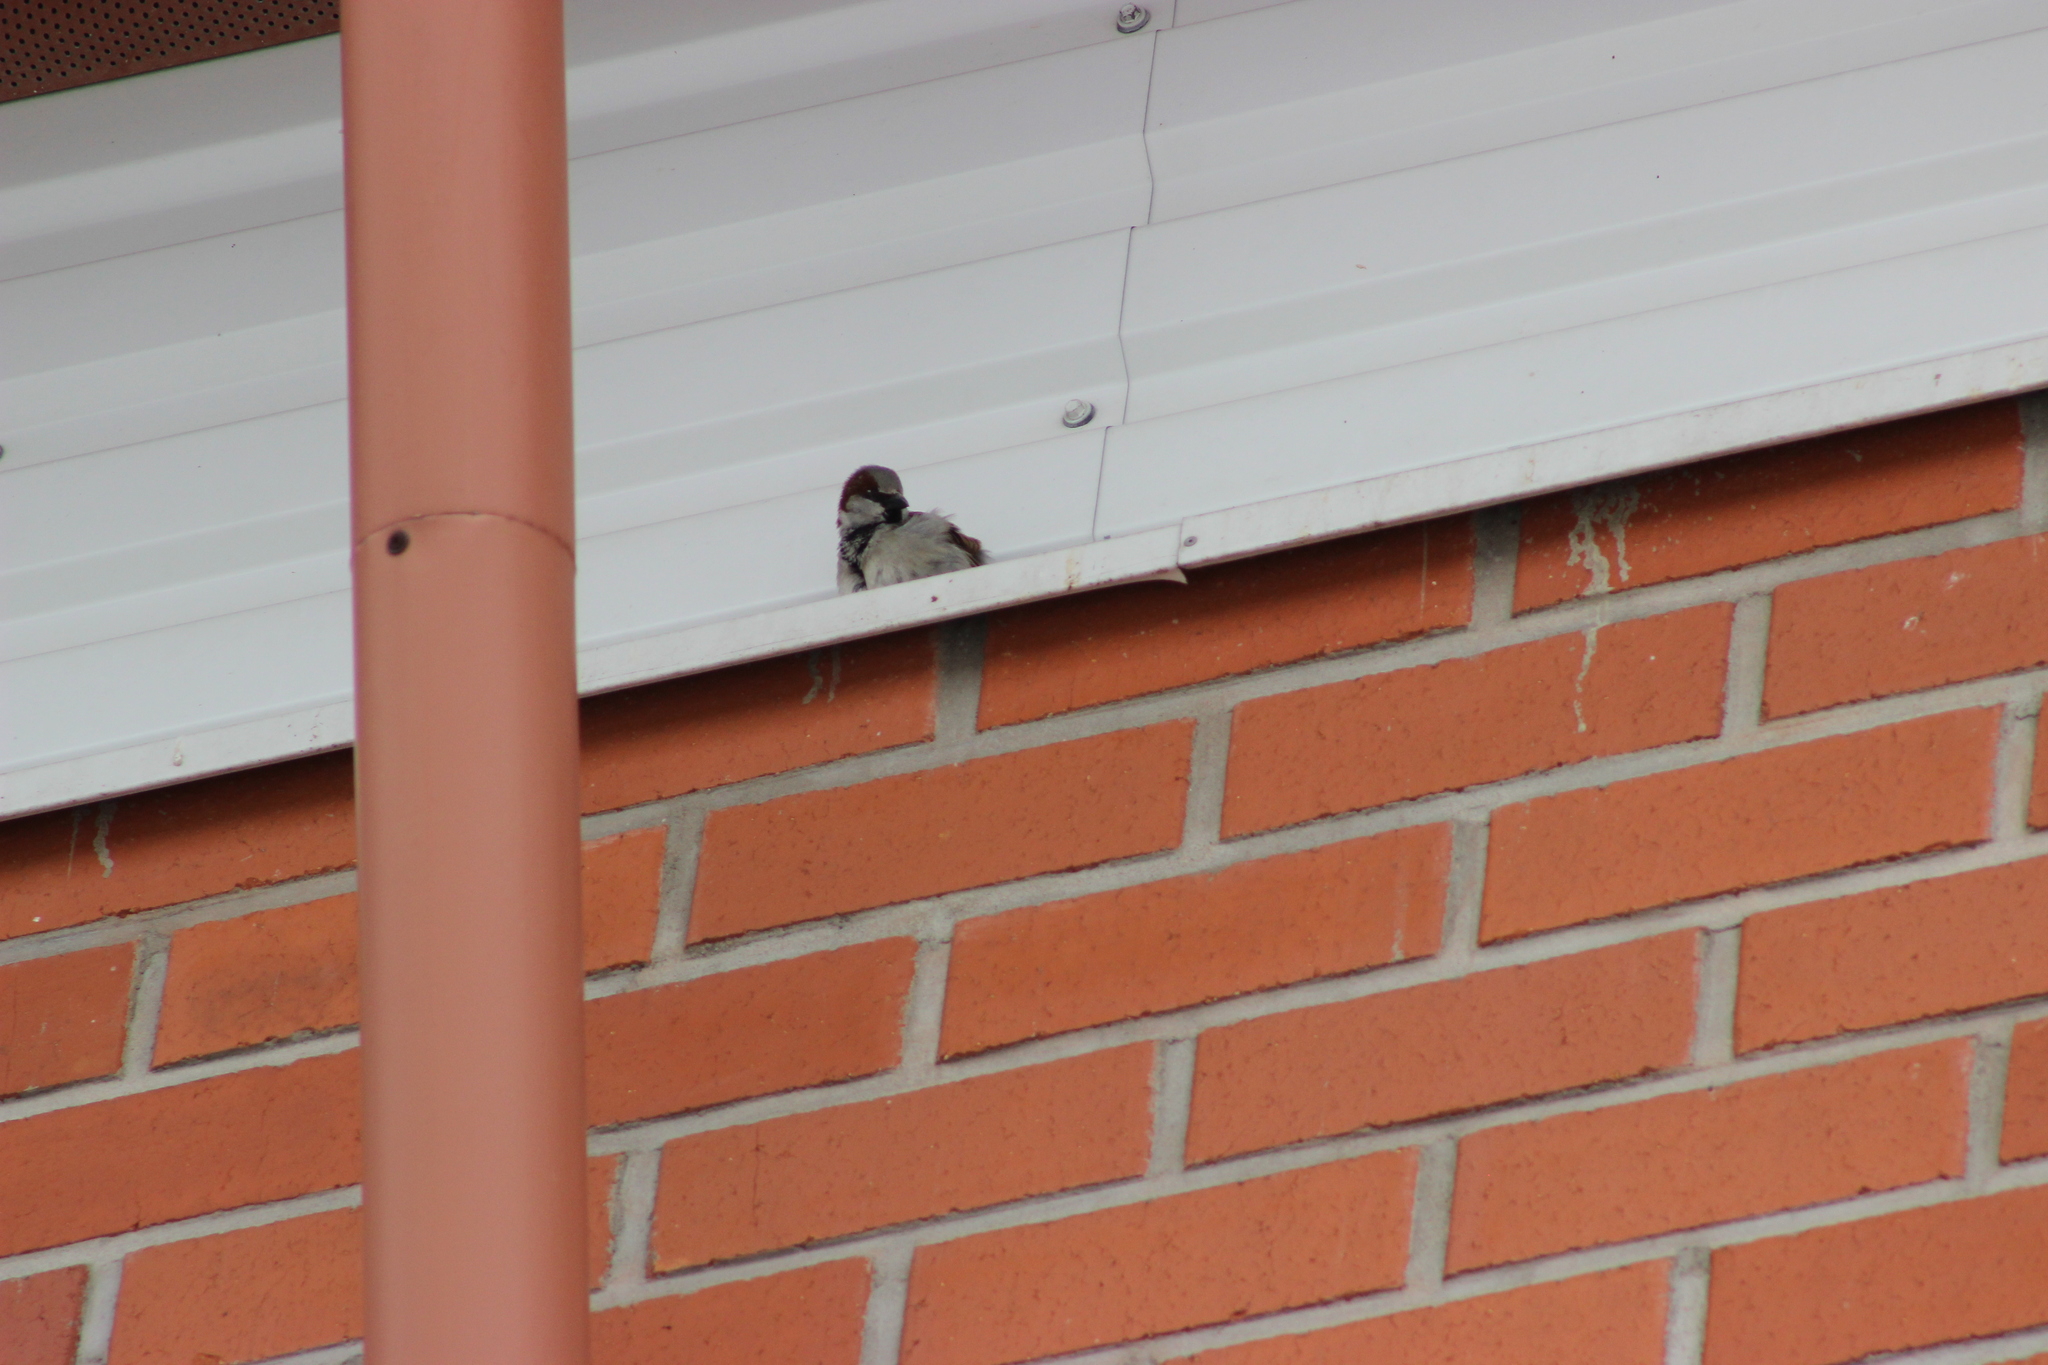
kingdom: Animalia
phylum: Chordata
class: Aves
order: Passeriformes
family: Passeridae
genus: Passer
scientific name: Passer domesticus
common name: House sparrow
